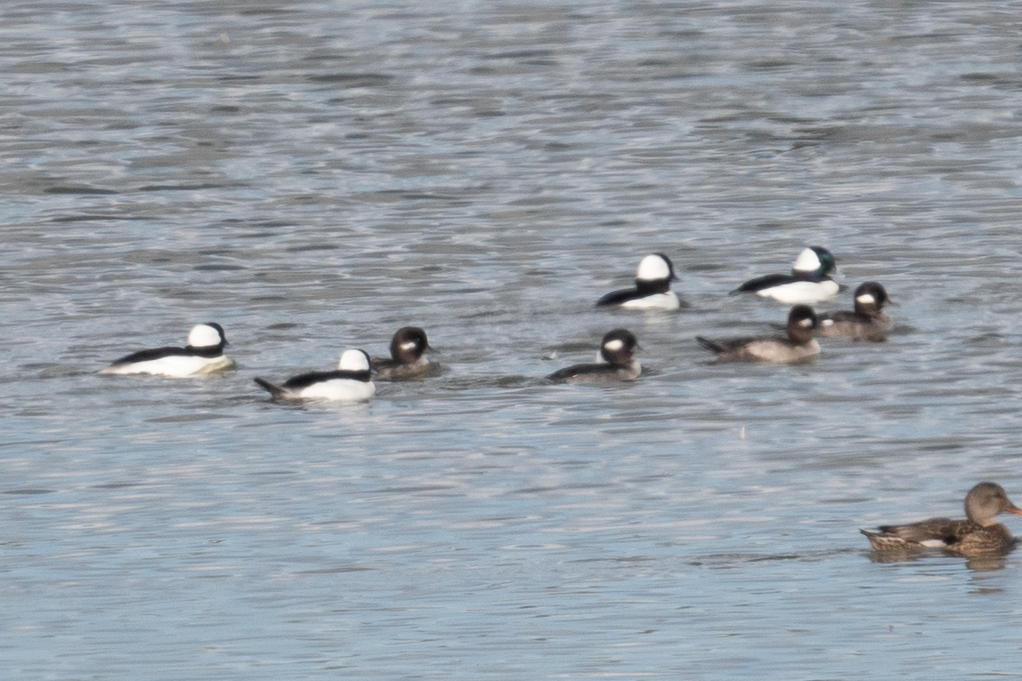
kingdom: Animalia
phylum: Chordata
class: Aves
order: Anseriformes
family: Anatidae
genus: Bucephala
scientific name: Bucephala albeola
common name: Bufflehead
